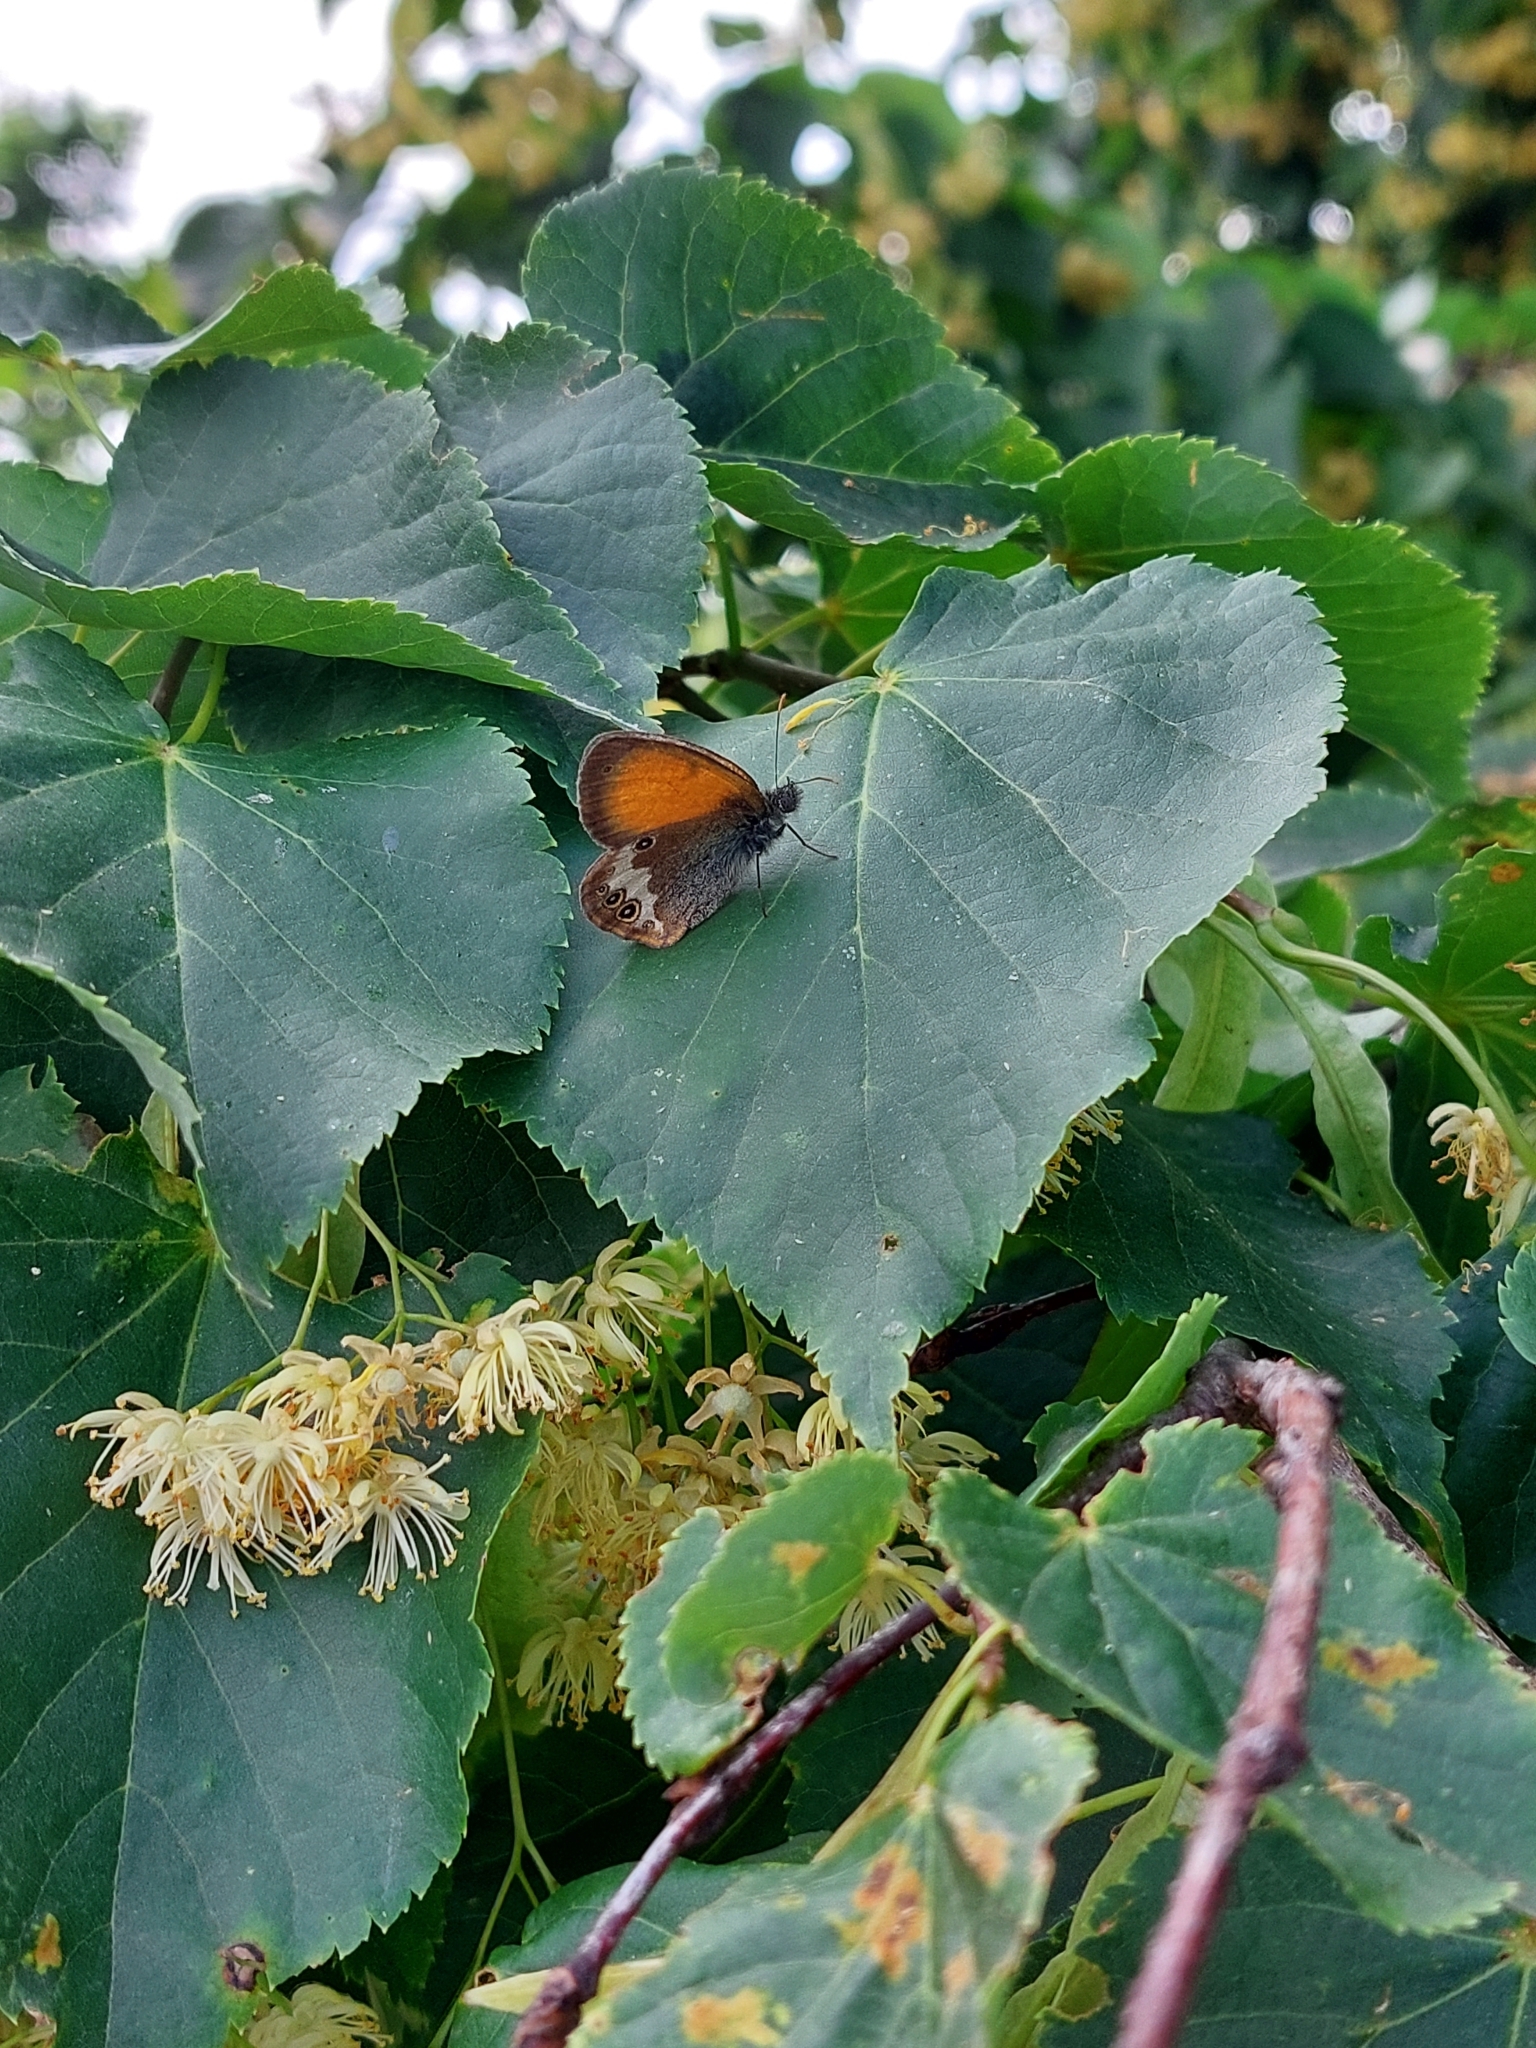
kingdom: Animalia
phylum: Arthropoda
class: Insecta
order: Lepidoptera
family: Nymphalidae
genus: Coenonympha
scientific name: Coenonympha arcania
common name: Pearly heath
